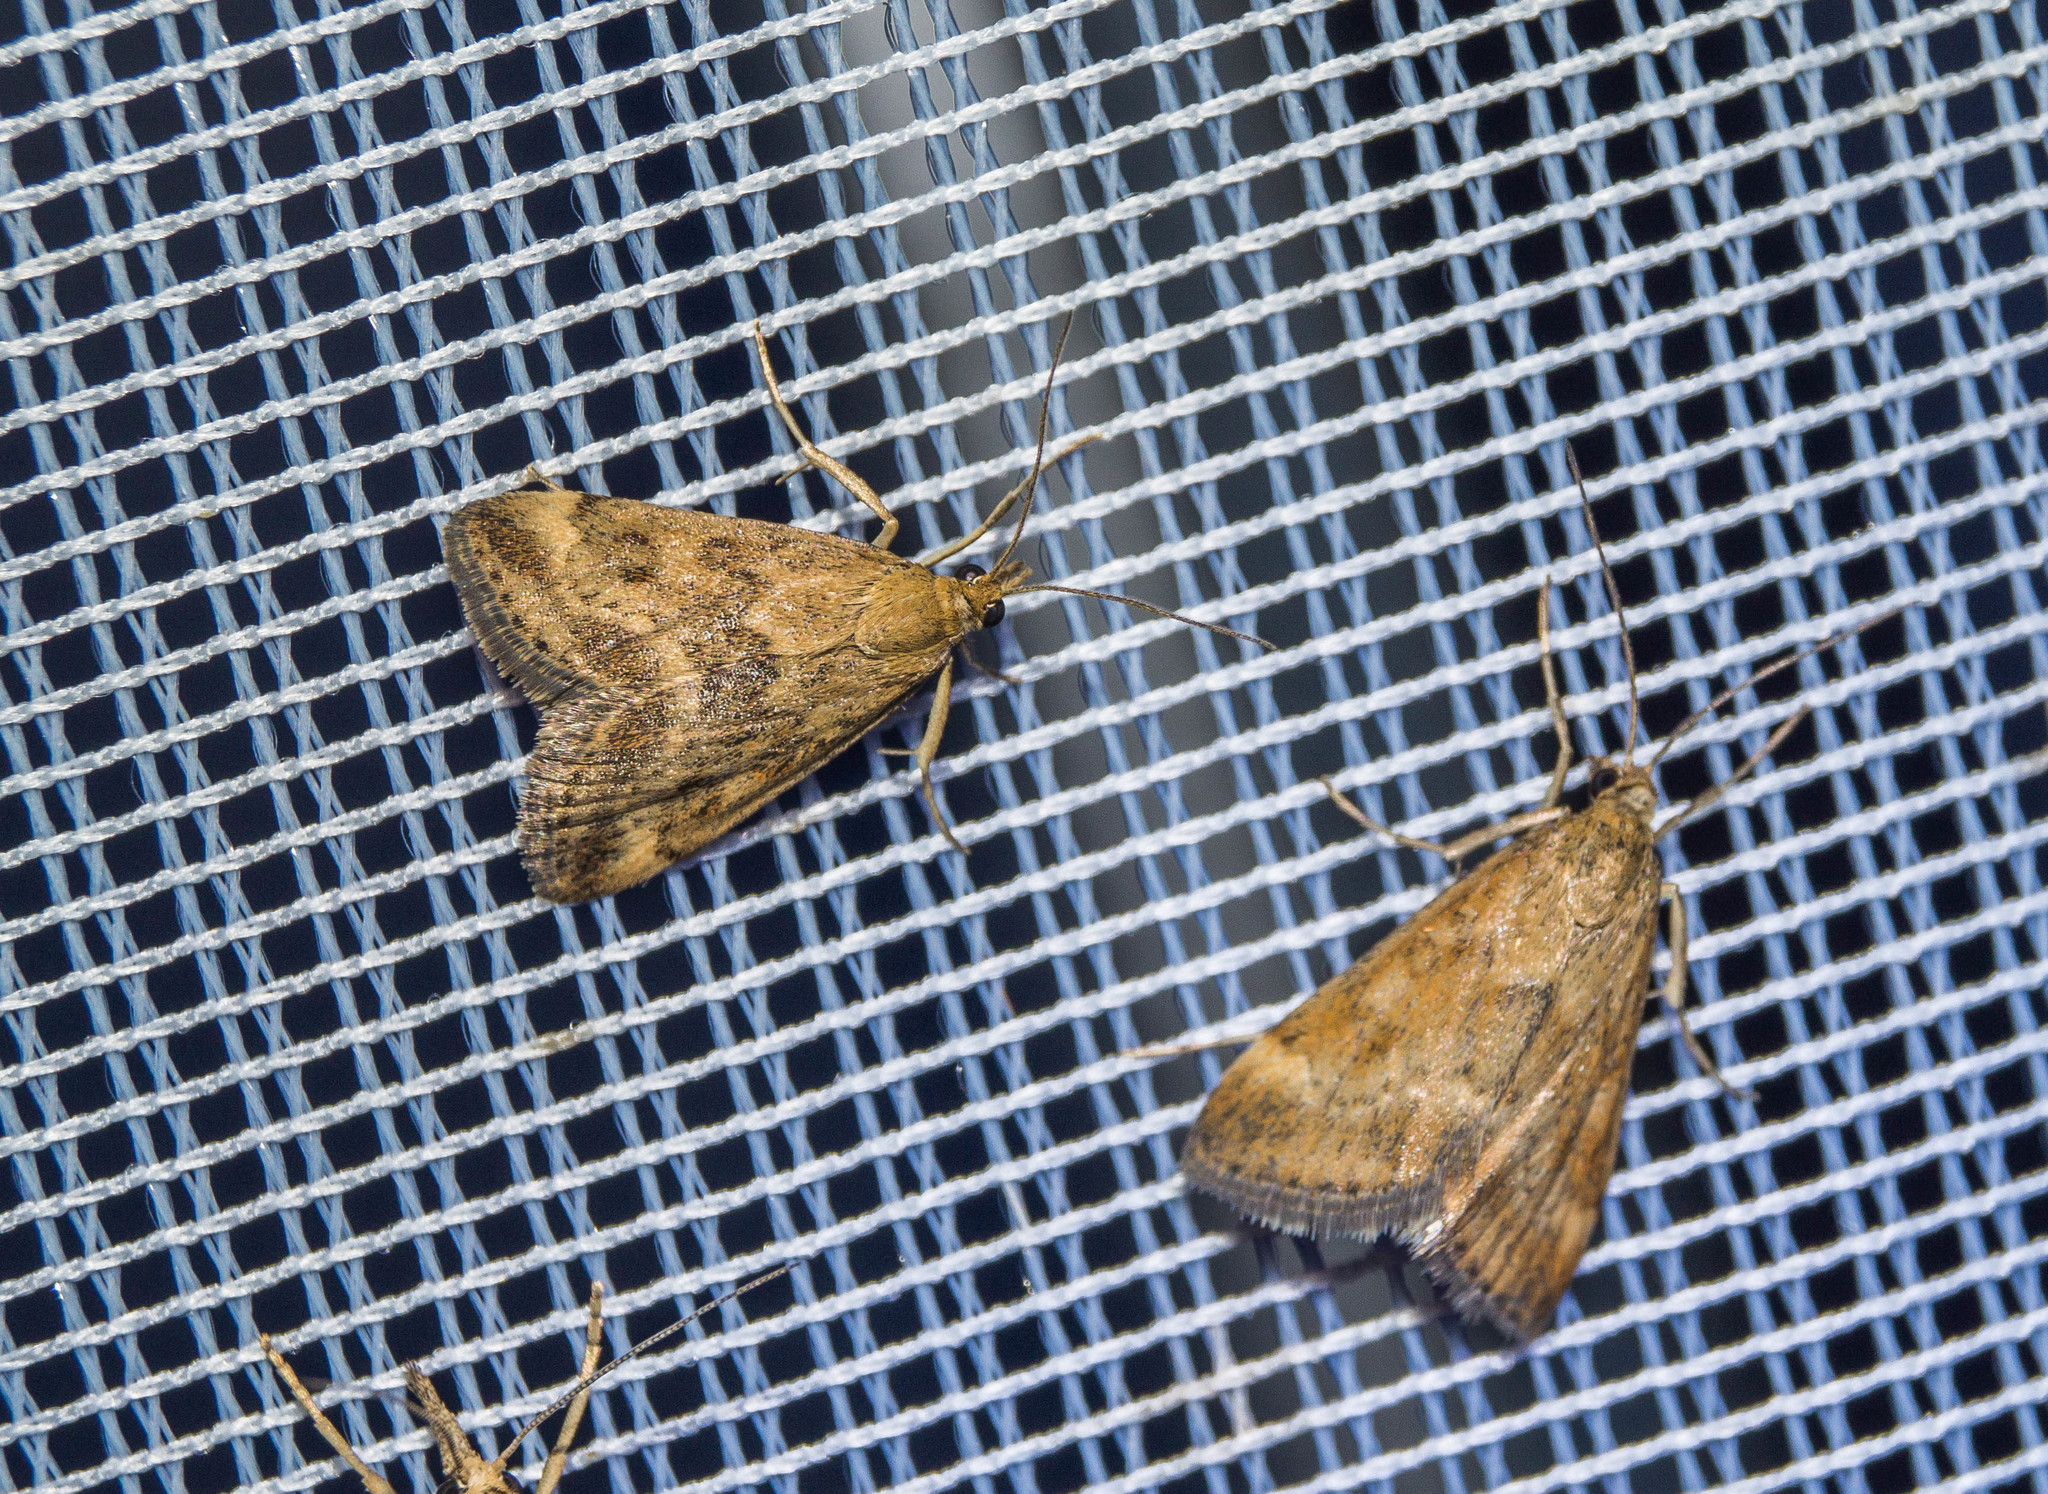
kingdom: Animalia
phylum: Arthropoda
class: Insecta
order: Lepidoptera
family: Crambidae
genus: Pyrausta
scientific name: Pyrausta despicata
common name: Straw-barred pearl
